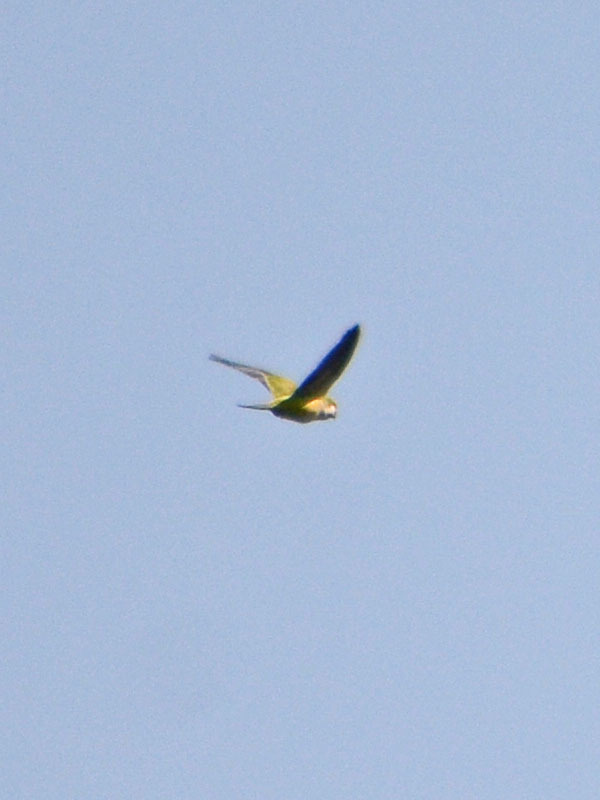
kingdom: Animalia
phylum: Chordata
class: Aves
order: Psittaciformes
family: Psittacidae
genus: Myiopsitta
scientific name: Myiopsitta monachus
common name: Monk parakeet
